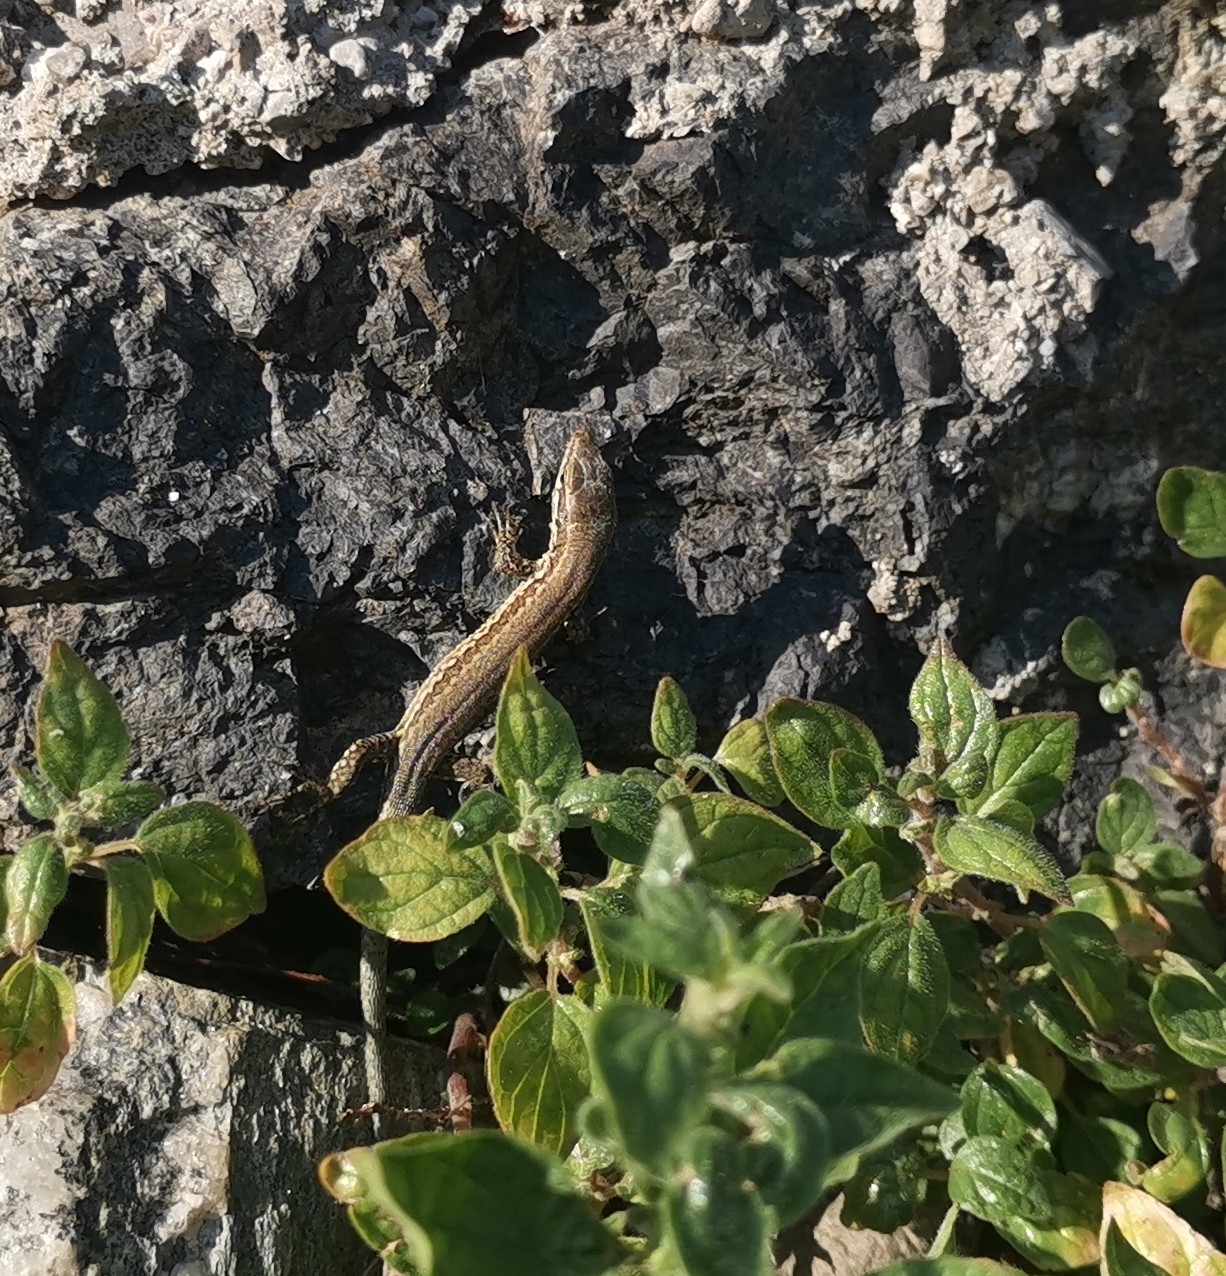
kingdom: Animalia
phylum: Chordata
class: Squamata
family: Lacertidae
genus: Podarcis
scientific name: Podarcis muralis
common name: Common wall lizard
